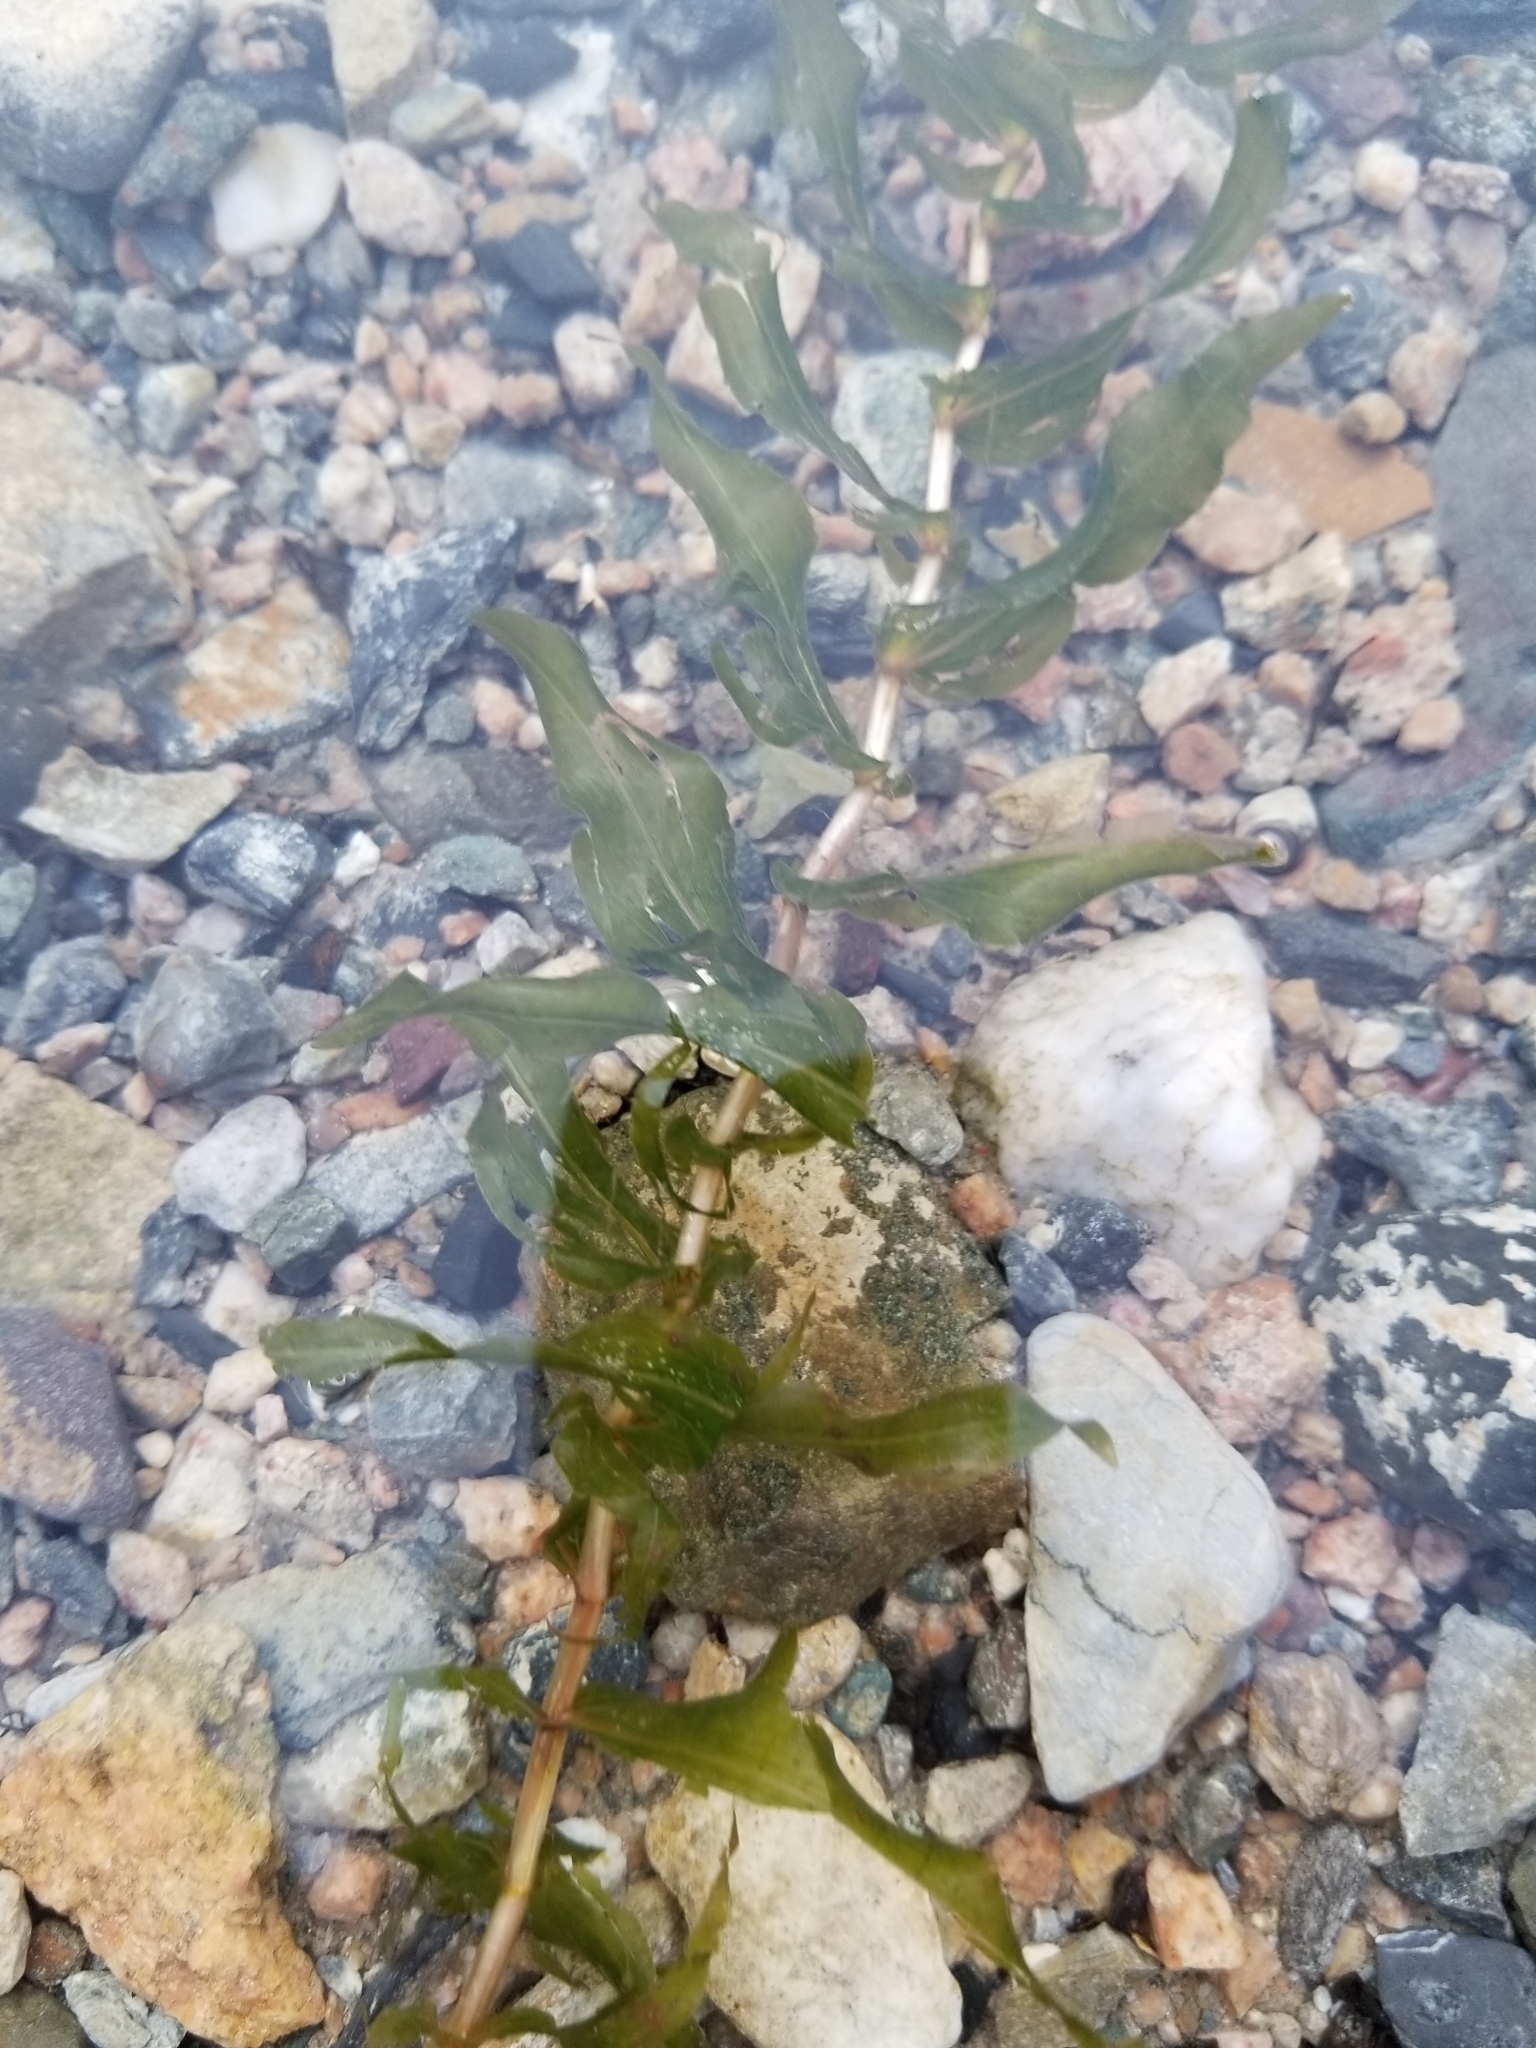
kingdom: Plantae
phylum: Tracheophyta
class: Liliopsida
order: Alismatales
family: Potamogetonaceae
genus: Potamogeton
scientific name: Potamogeton richardsonii
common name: Richardson's pondweed
